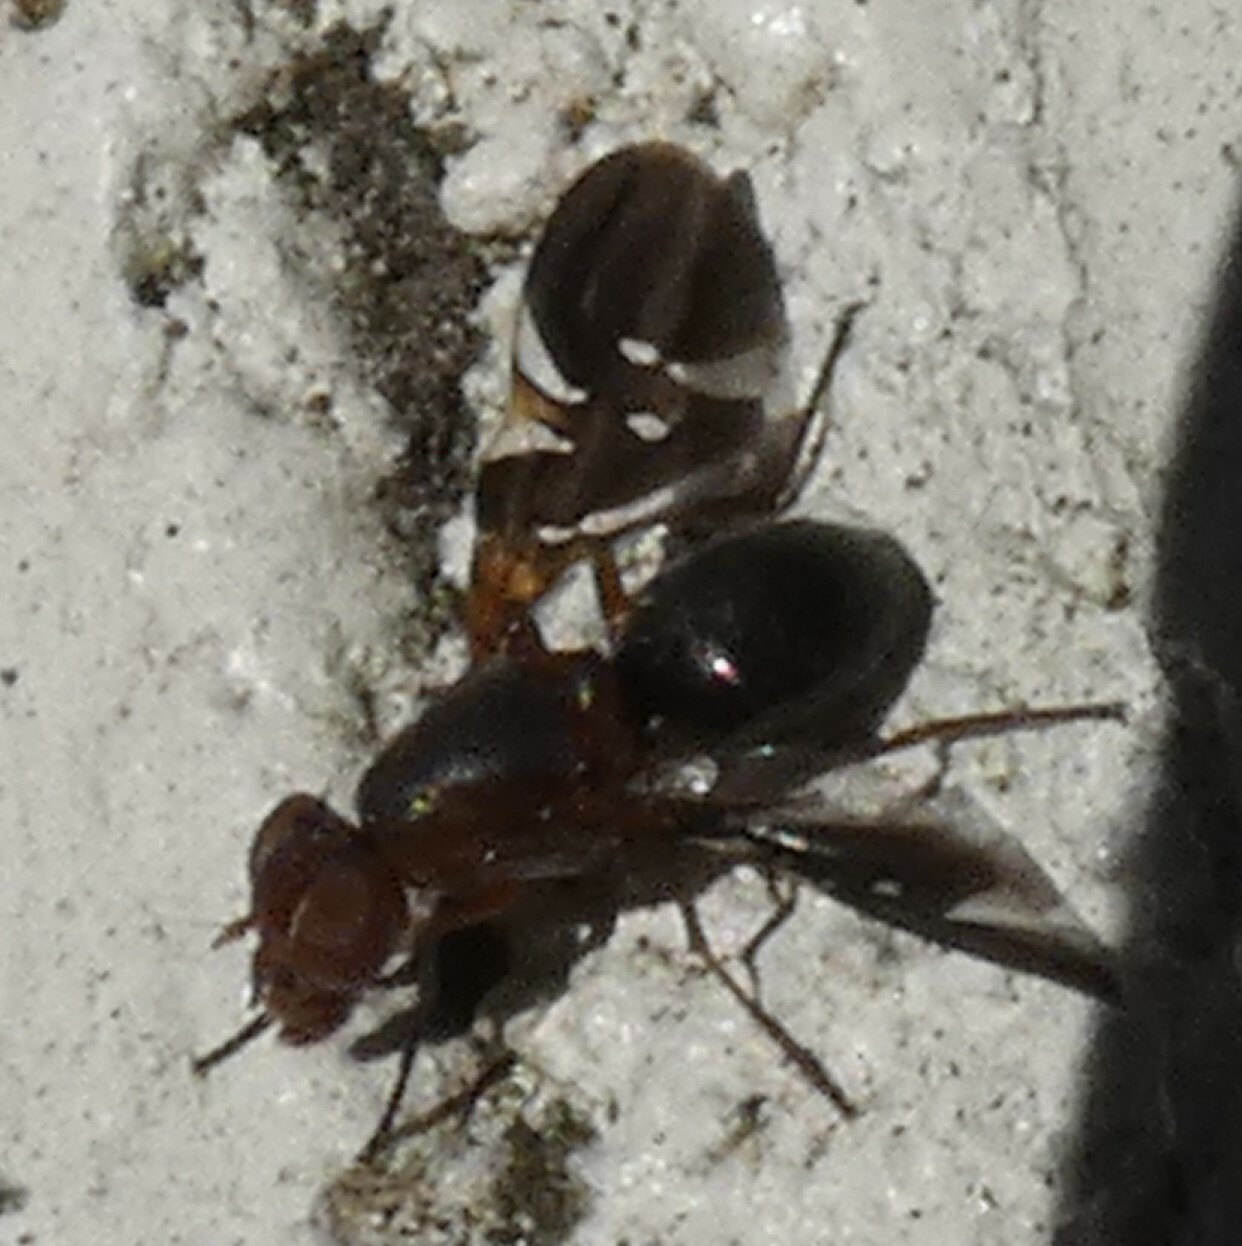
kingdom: Animalia
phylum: Arthropoda
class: Insecta
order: Diptera
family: Ulidiidae
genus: Delphinia
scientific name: Delphinia picta
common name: Common picture-winged fly
